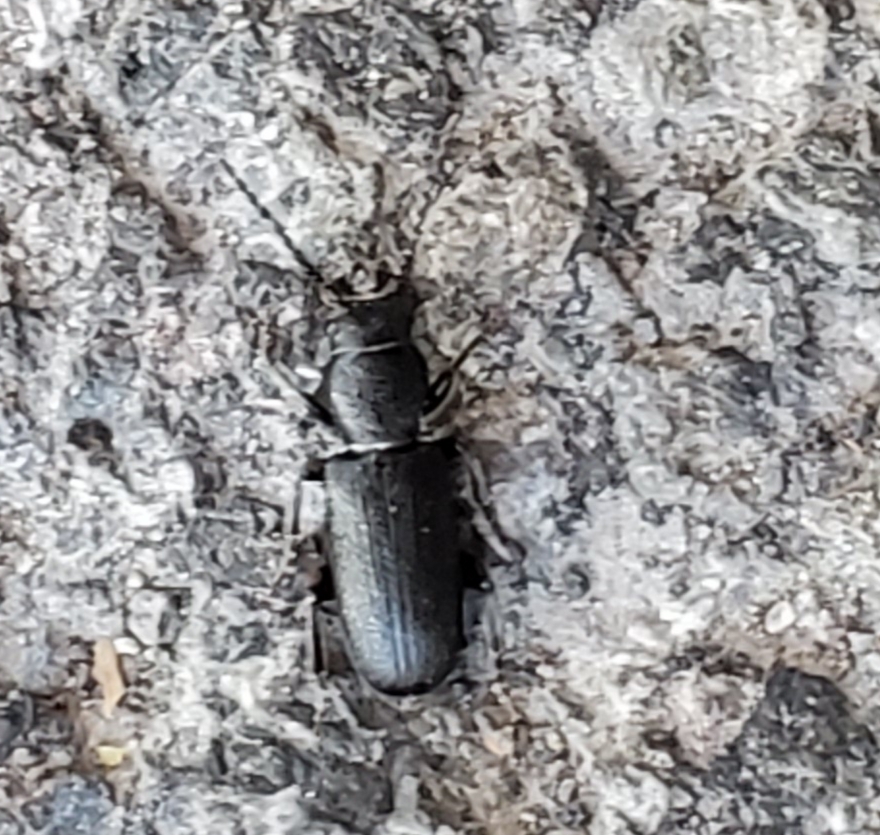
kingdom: Animalia
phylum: Arthropoda
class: Insecta
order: Coleoptera
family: Cerambycidae
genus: Neospondylis
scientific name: Neospondylis upiformis
